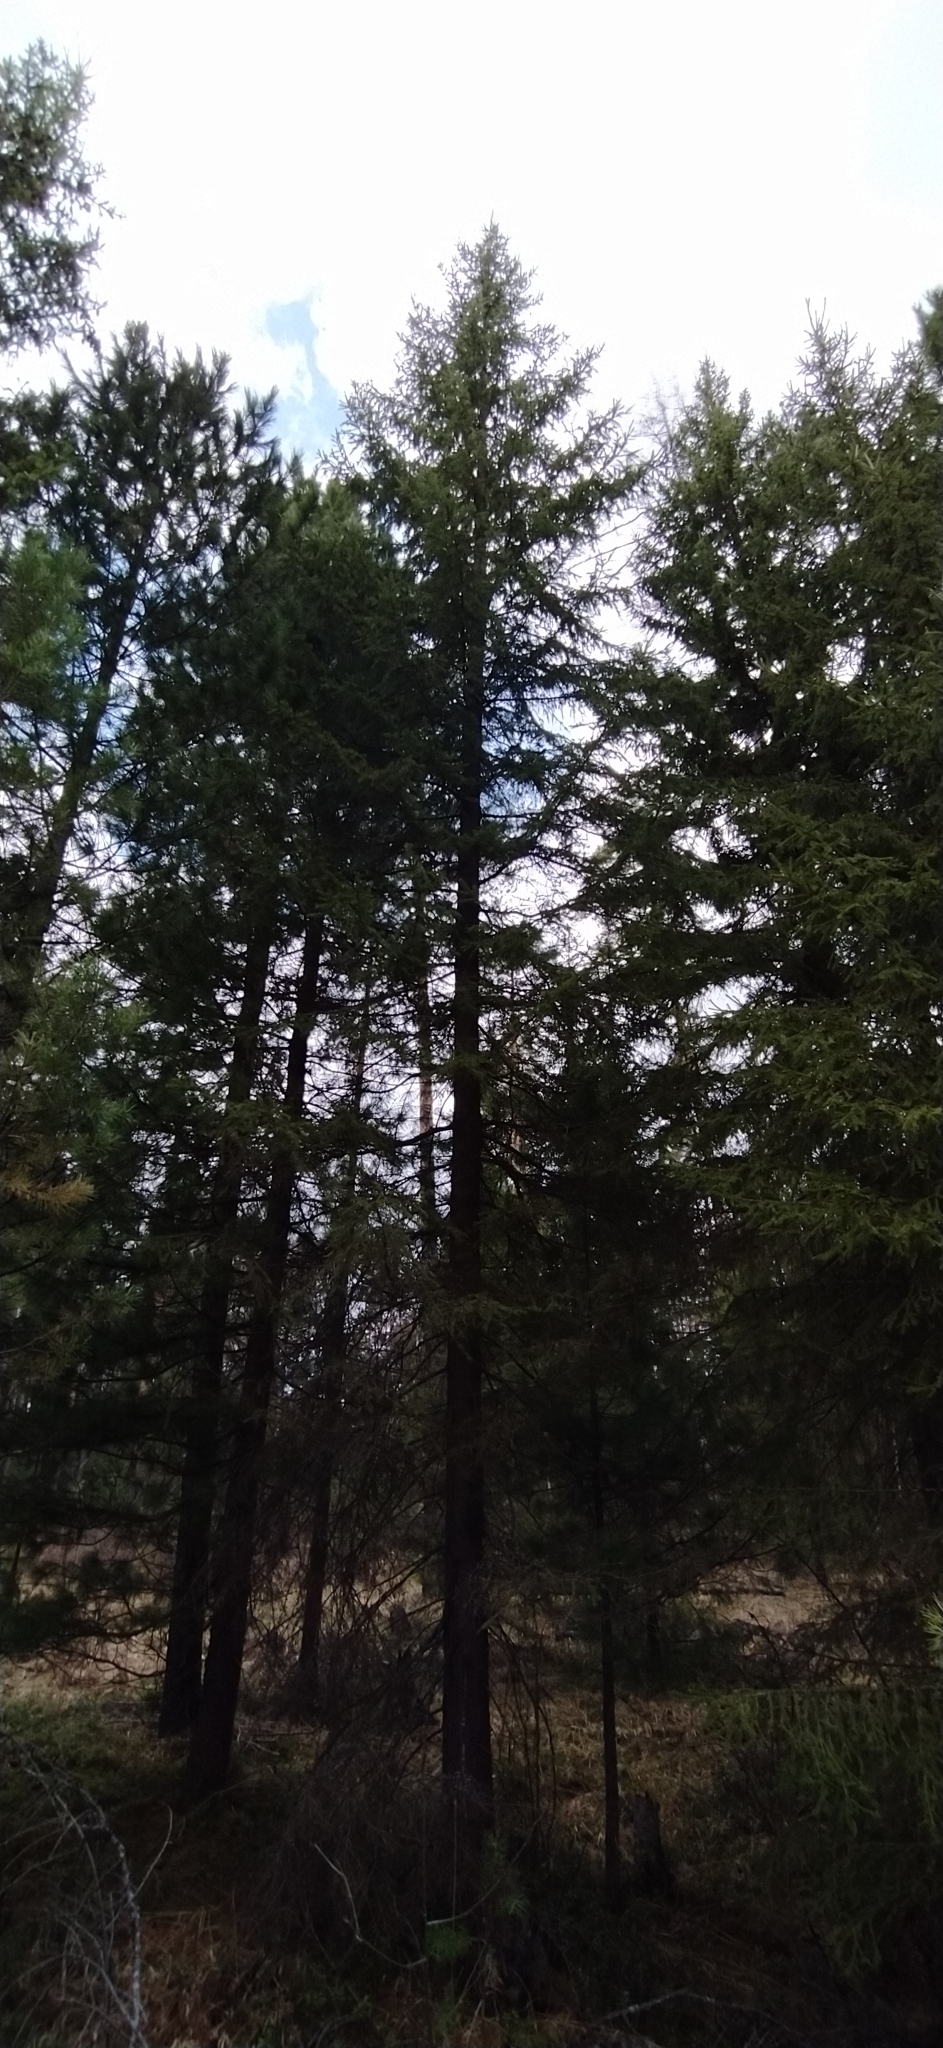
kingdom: Plantae
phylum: Tracheophyta
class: Pinopsida
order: Pinales
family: Pinaceae
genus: Picea
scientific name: Picea obovata
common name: Siberian spruce
